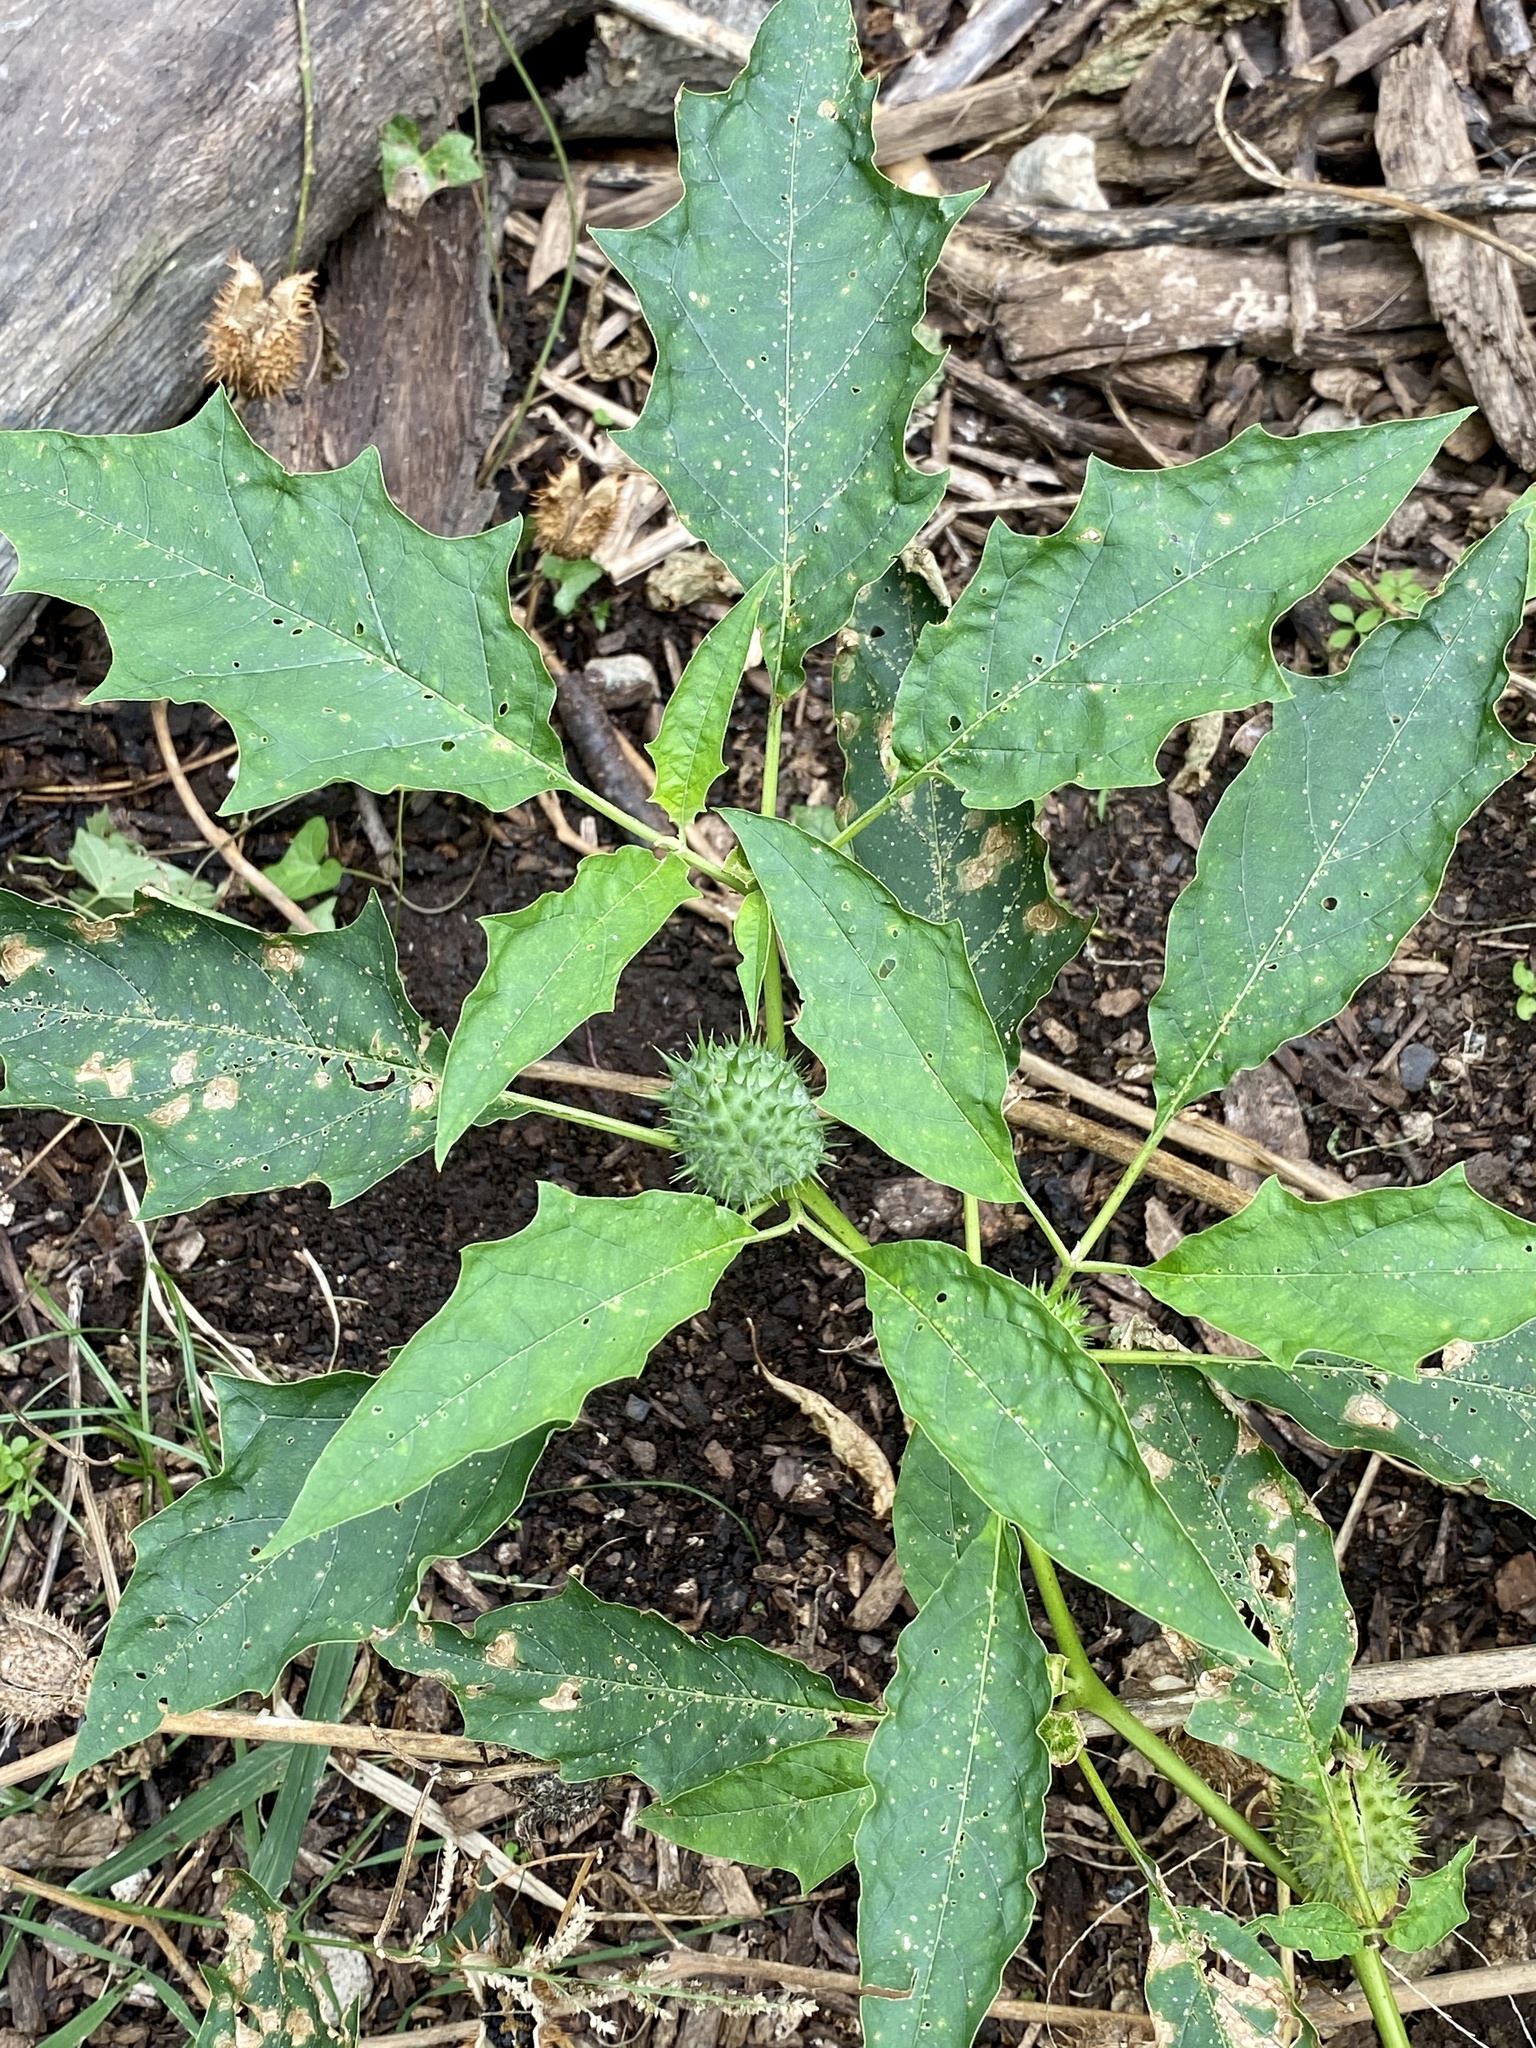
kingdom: Plantae
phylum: Tracheophyta
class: Magnoliopsida
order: Solanales
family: Solanaceae
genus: Datura
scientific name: Datura stramonium
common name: Thorn-apple
